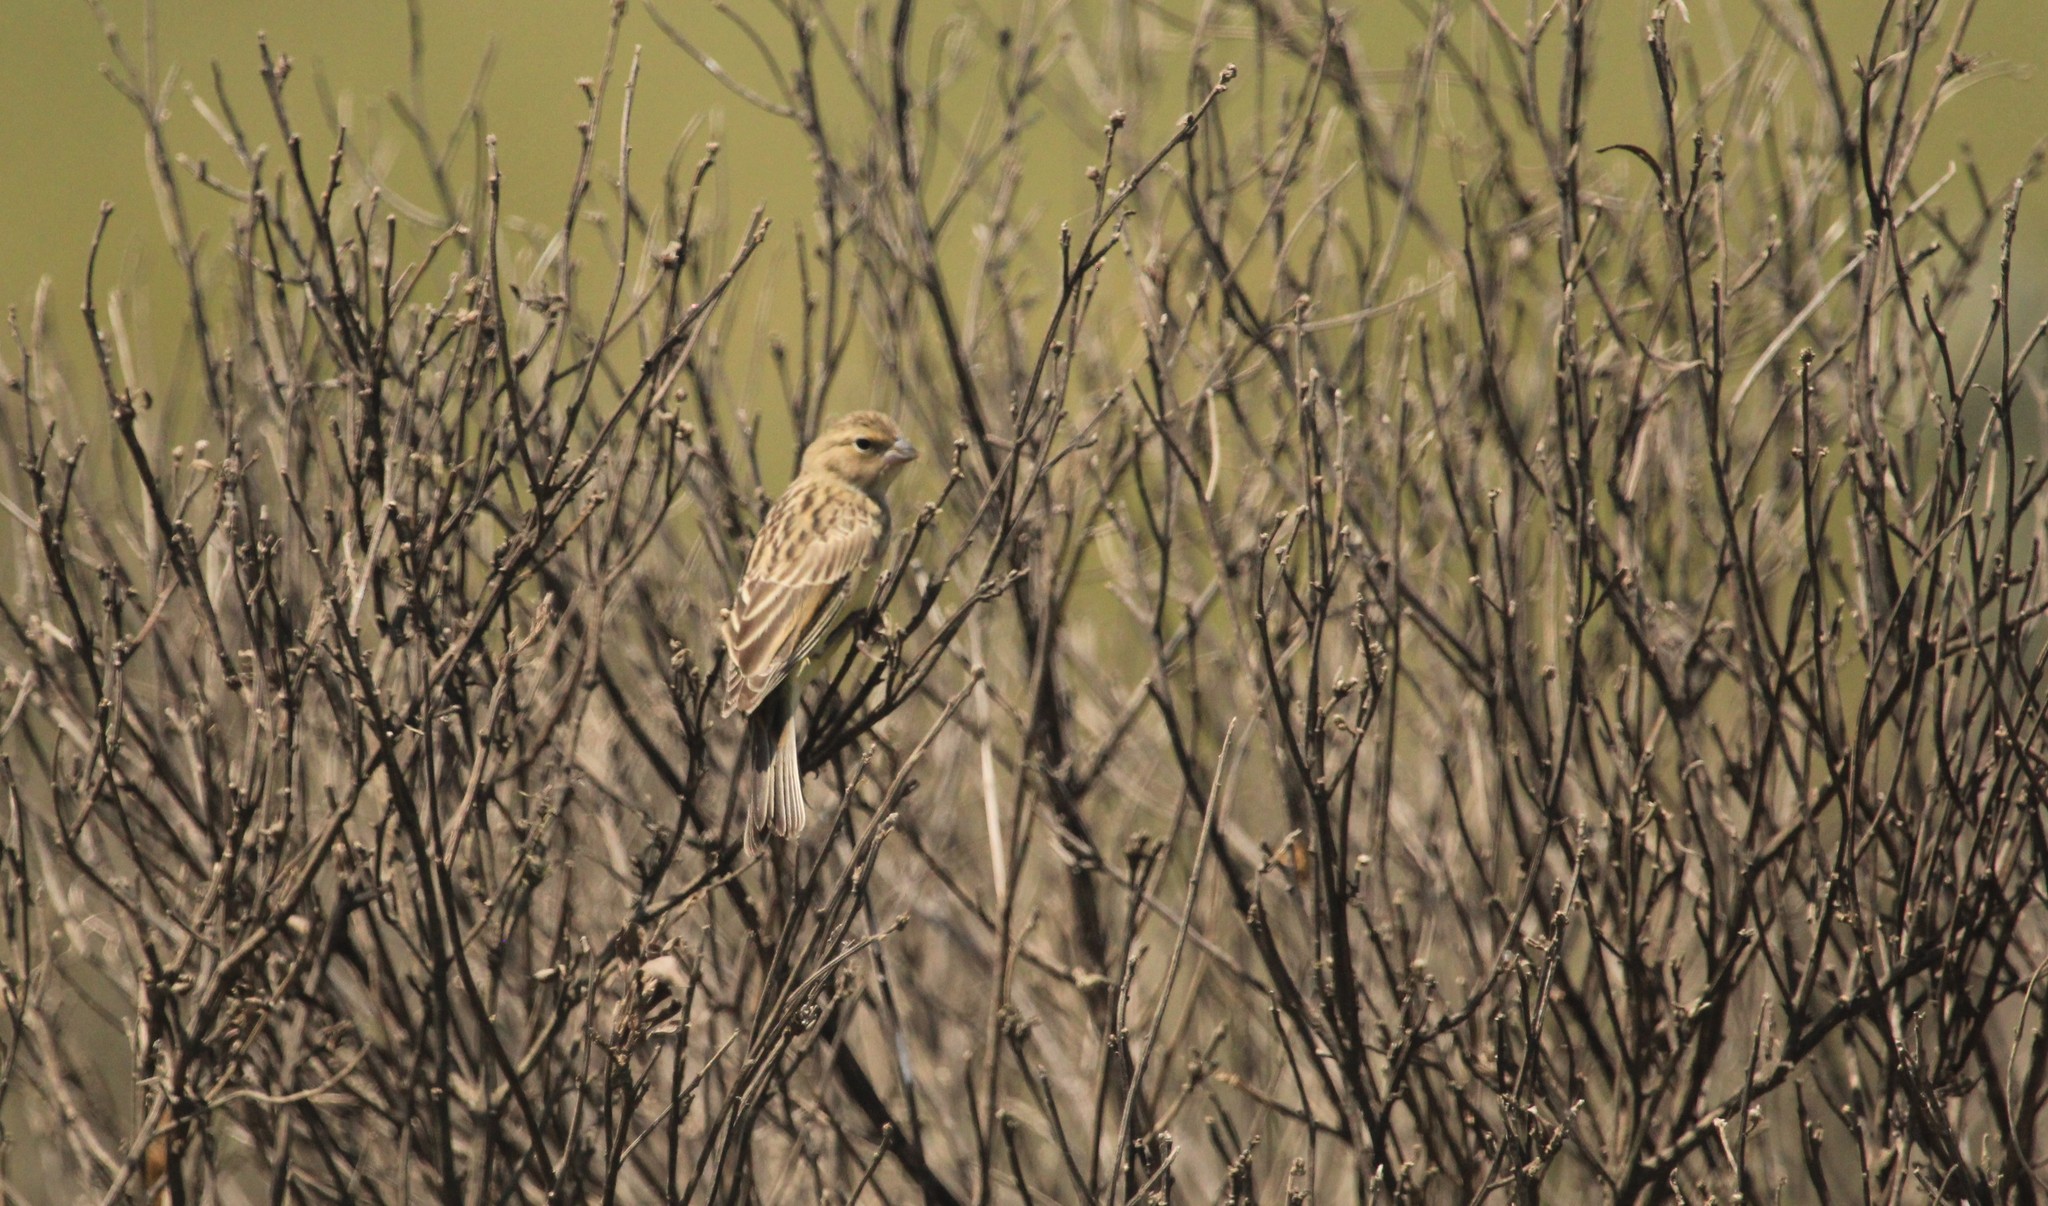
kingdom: Animalia
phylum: Chordata
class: Aves
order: Passeriformes
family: Thraupidae
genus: Sicalis
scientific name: Sicalis luteola
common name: Grassland yellow-finch
